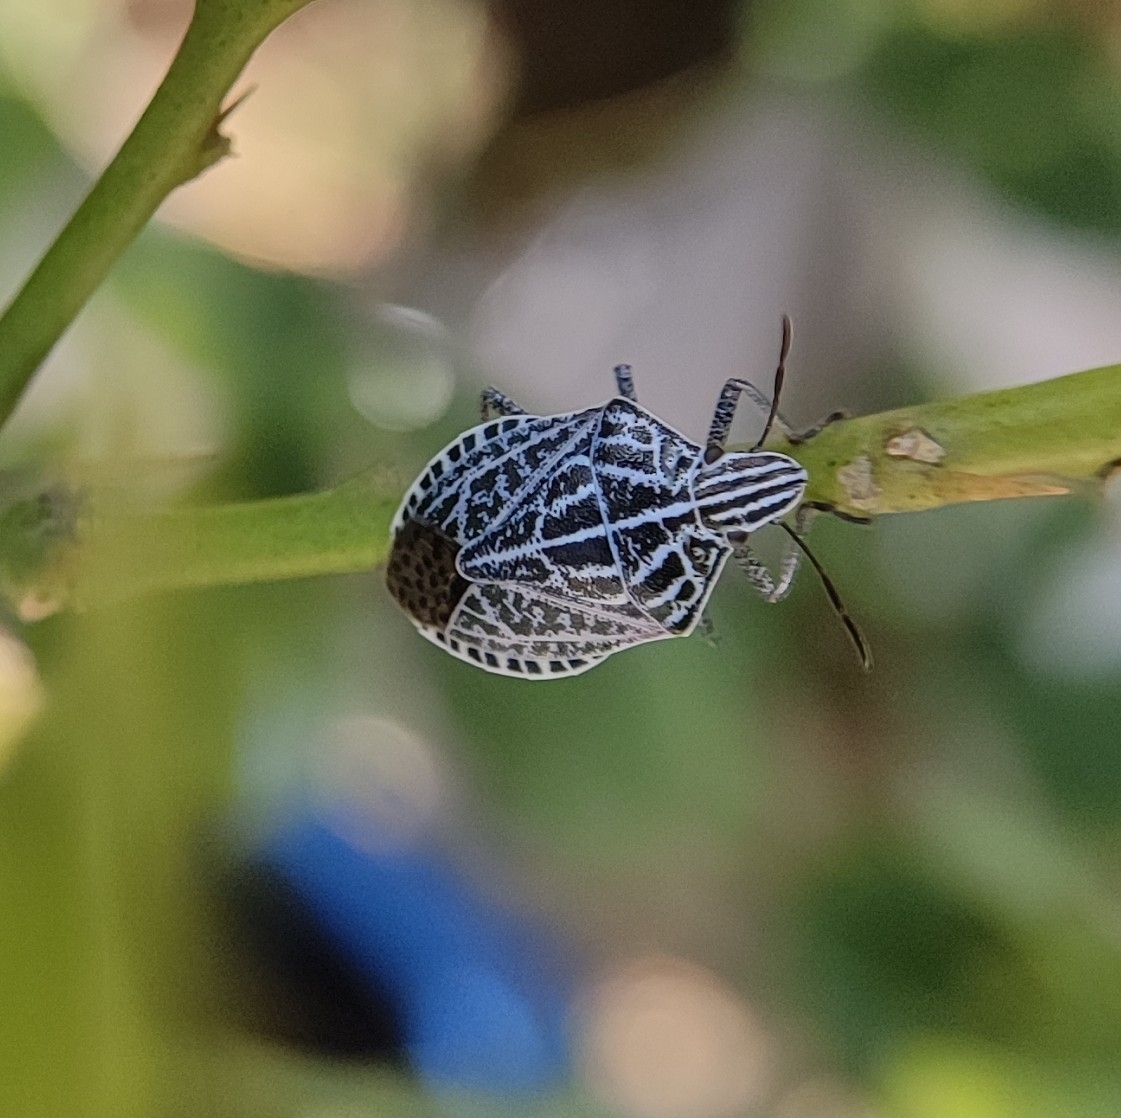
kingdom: Animalia
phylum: Arthropoda
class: Insecta
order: Hemiptera
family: Pentatomidae
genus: Cappaea
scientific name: Cappaea taprobanensis
